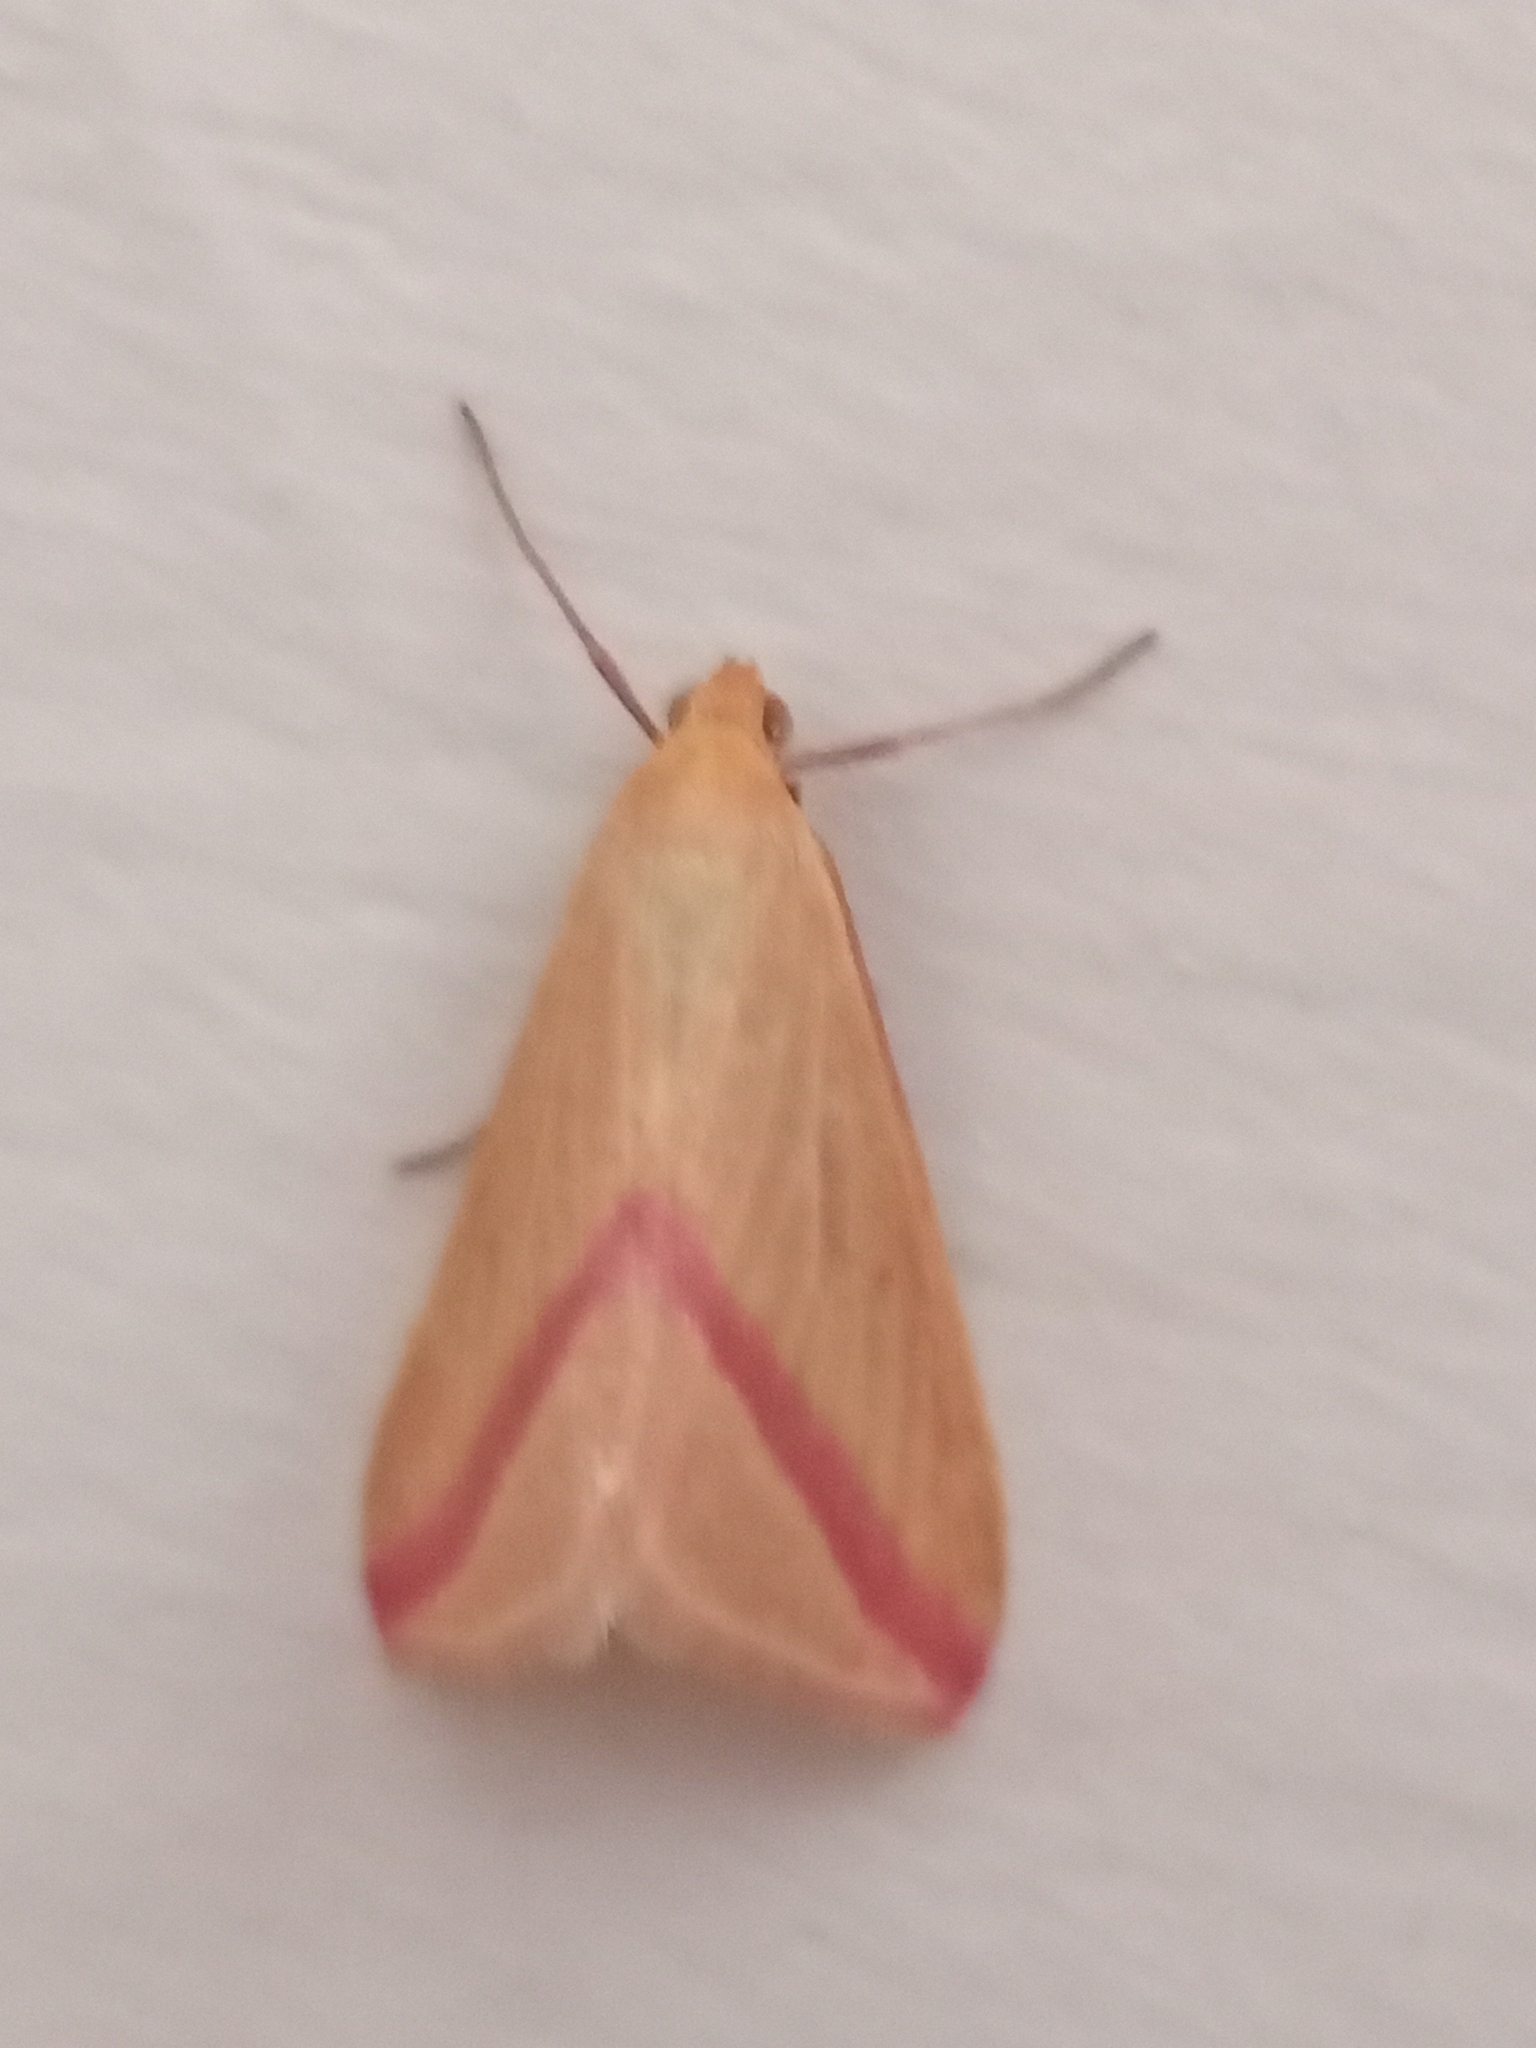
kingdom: Animalia
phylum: Arthropoda
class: Insecta
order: Lepidoptera
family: Geometridae
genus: Rhodometra
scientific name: Rhodometra sacraria
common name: Vestal
